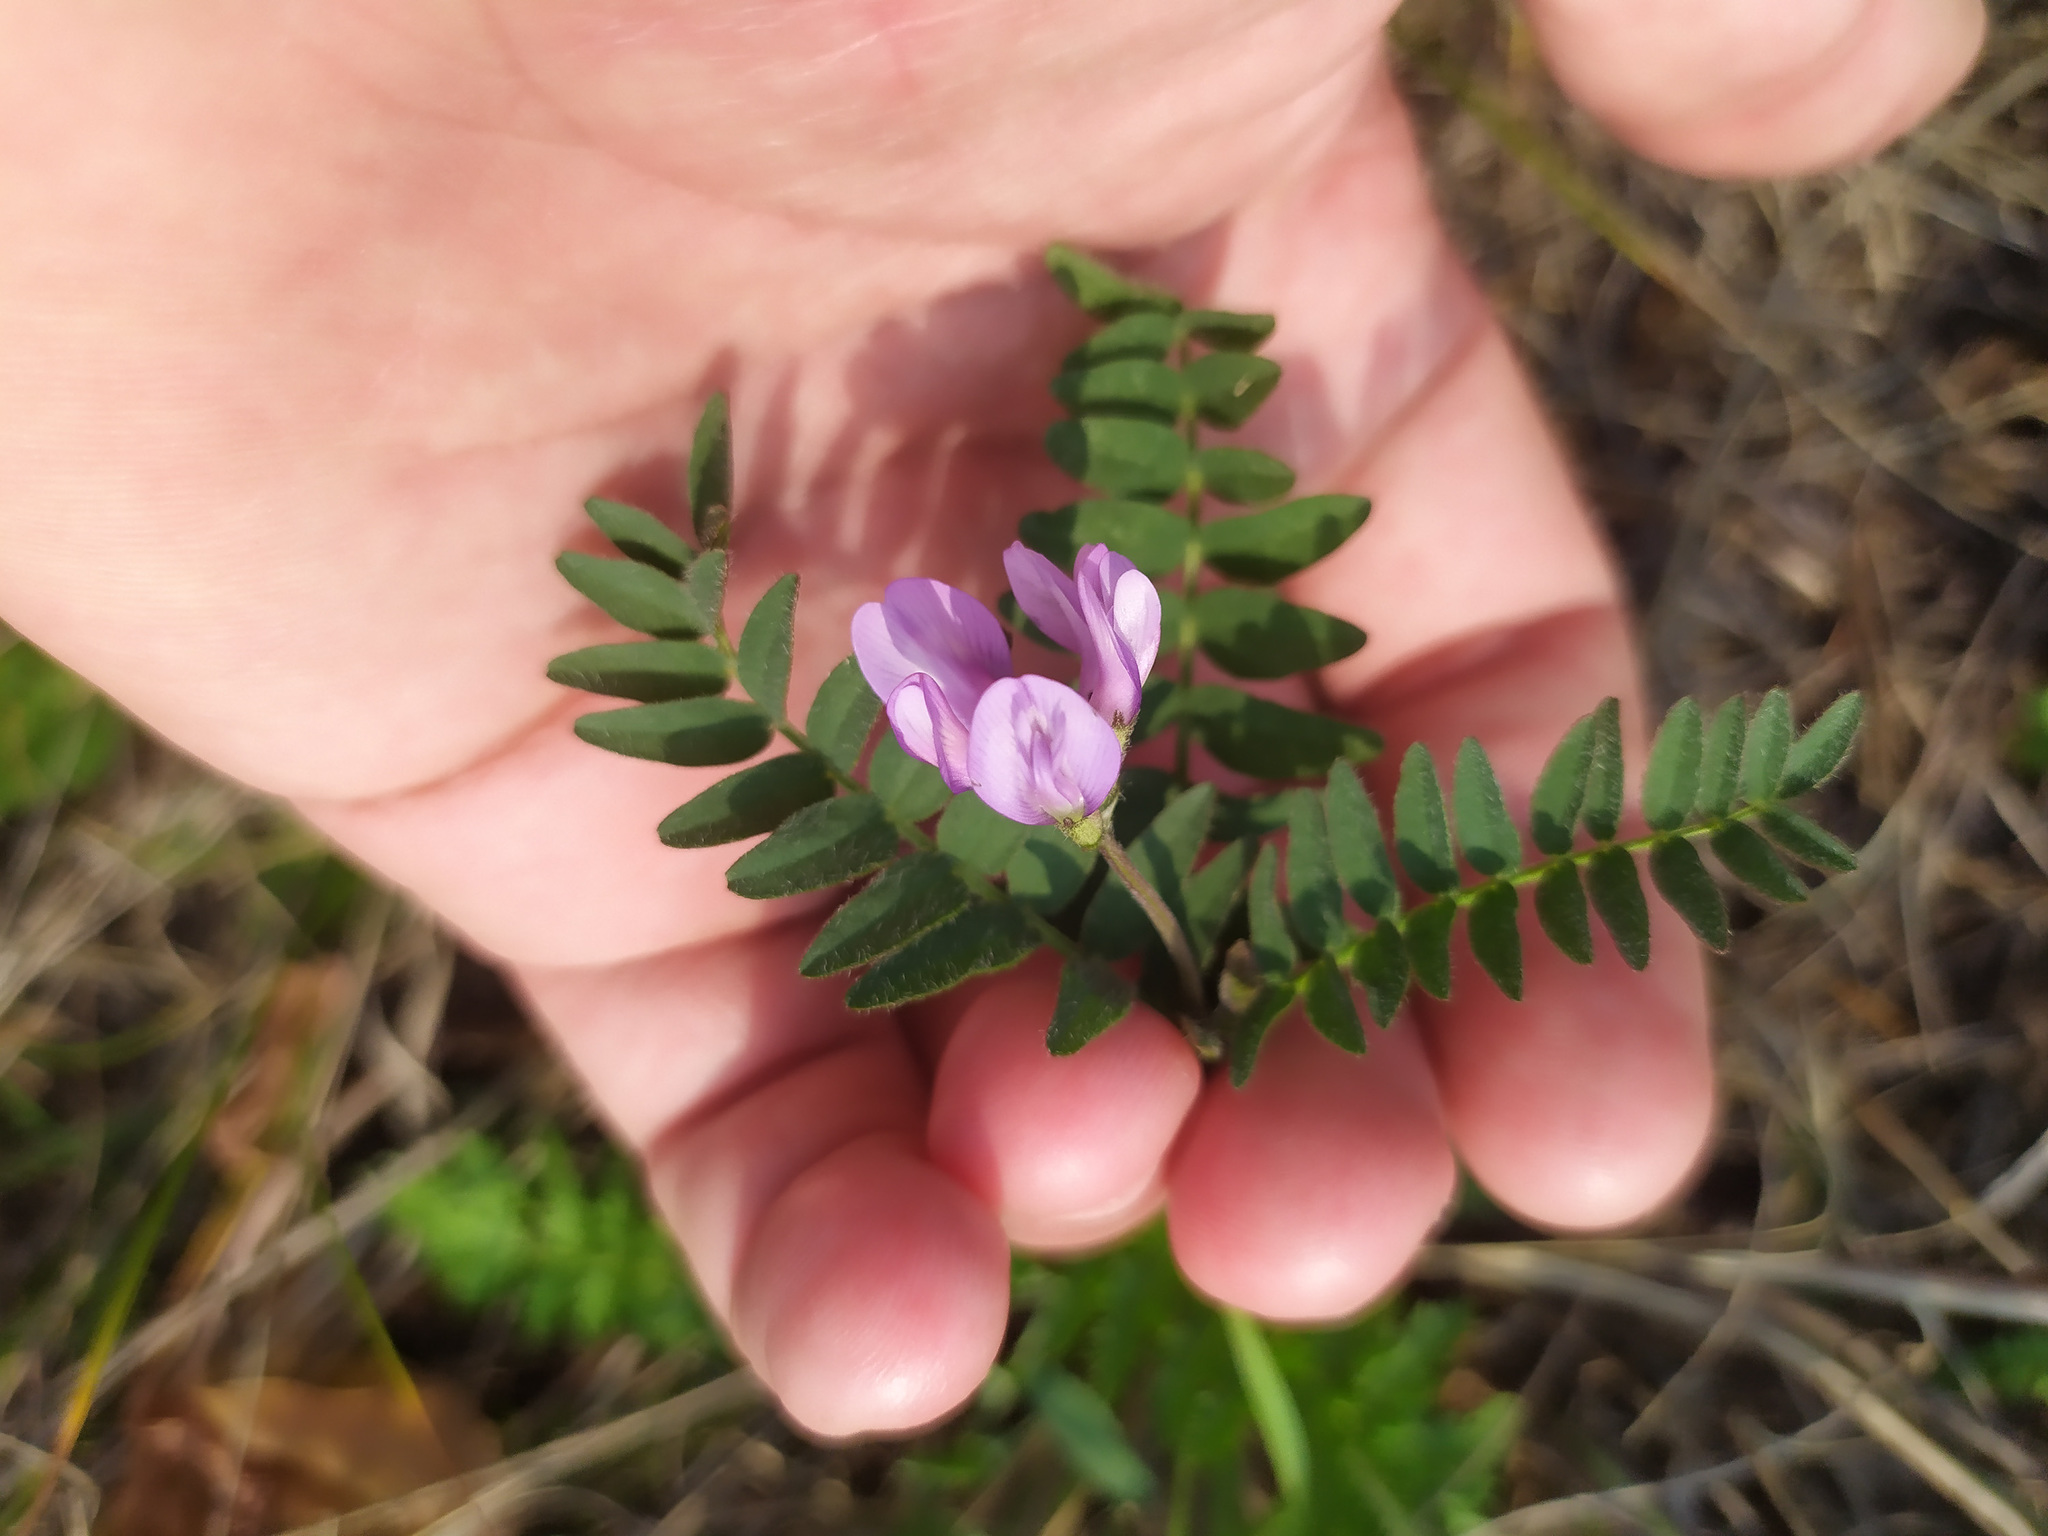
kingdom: Plantae
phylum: Tracheophyta
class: Magnoliopsida
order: Fabales
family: Fabaceae
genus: Astragalus
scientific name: Astragalus danicus
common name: Purple milk-vetch
